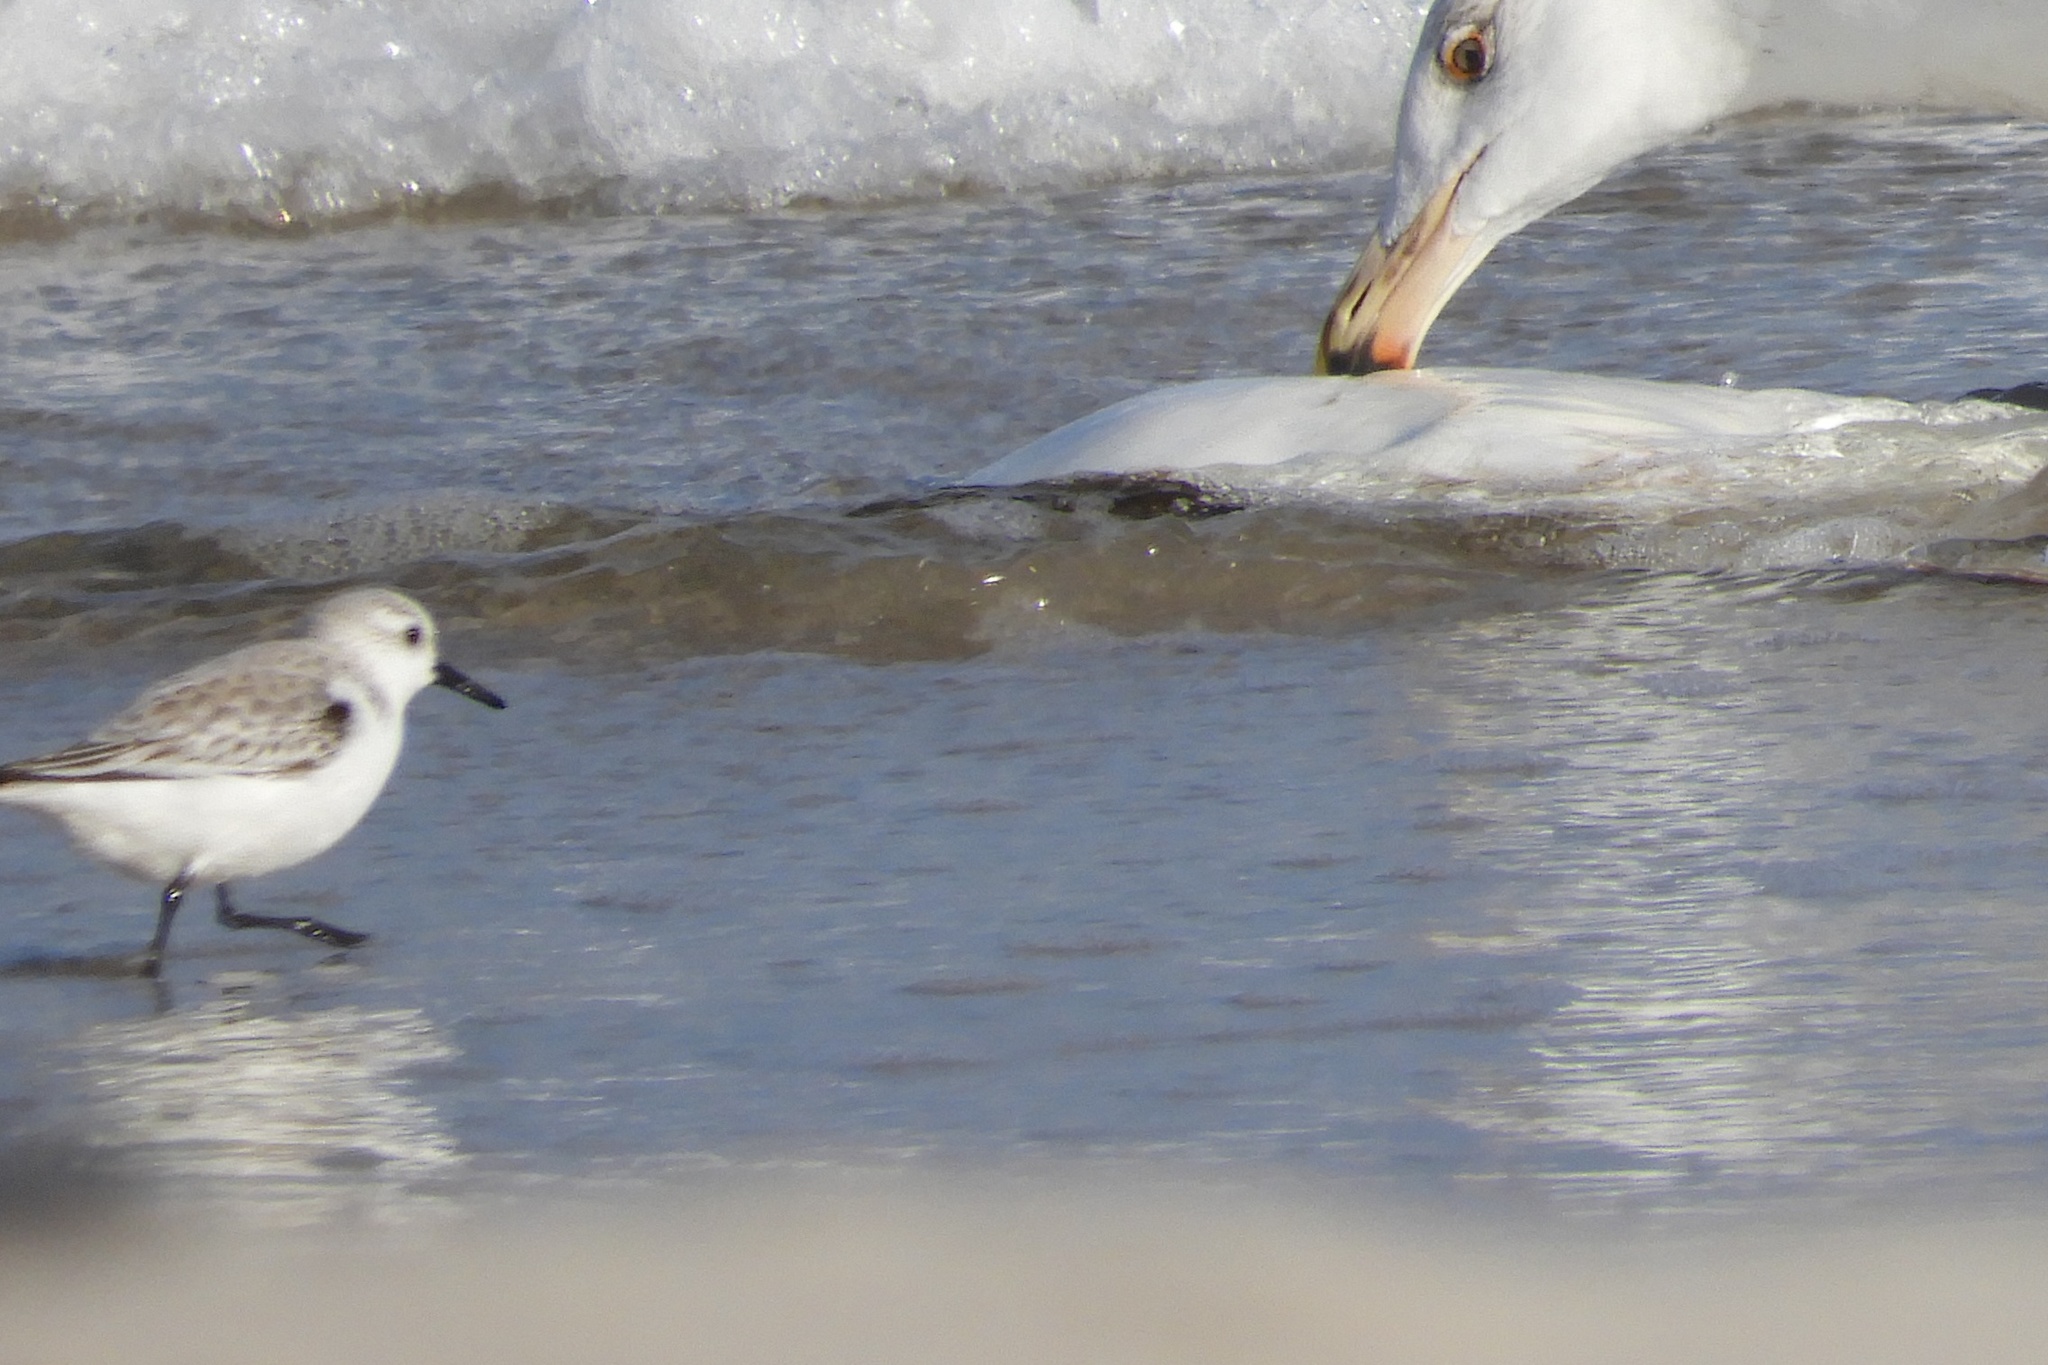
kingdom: Animalia
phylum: Chordata
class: Aves
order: Charadriiformes
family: Scolopacidae
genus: Calidris
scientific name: Calidris alba
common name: Sanderling
